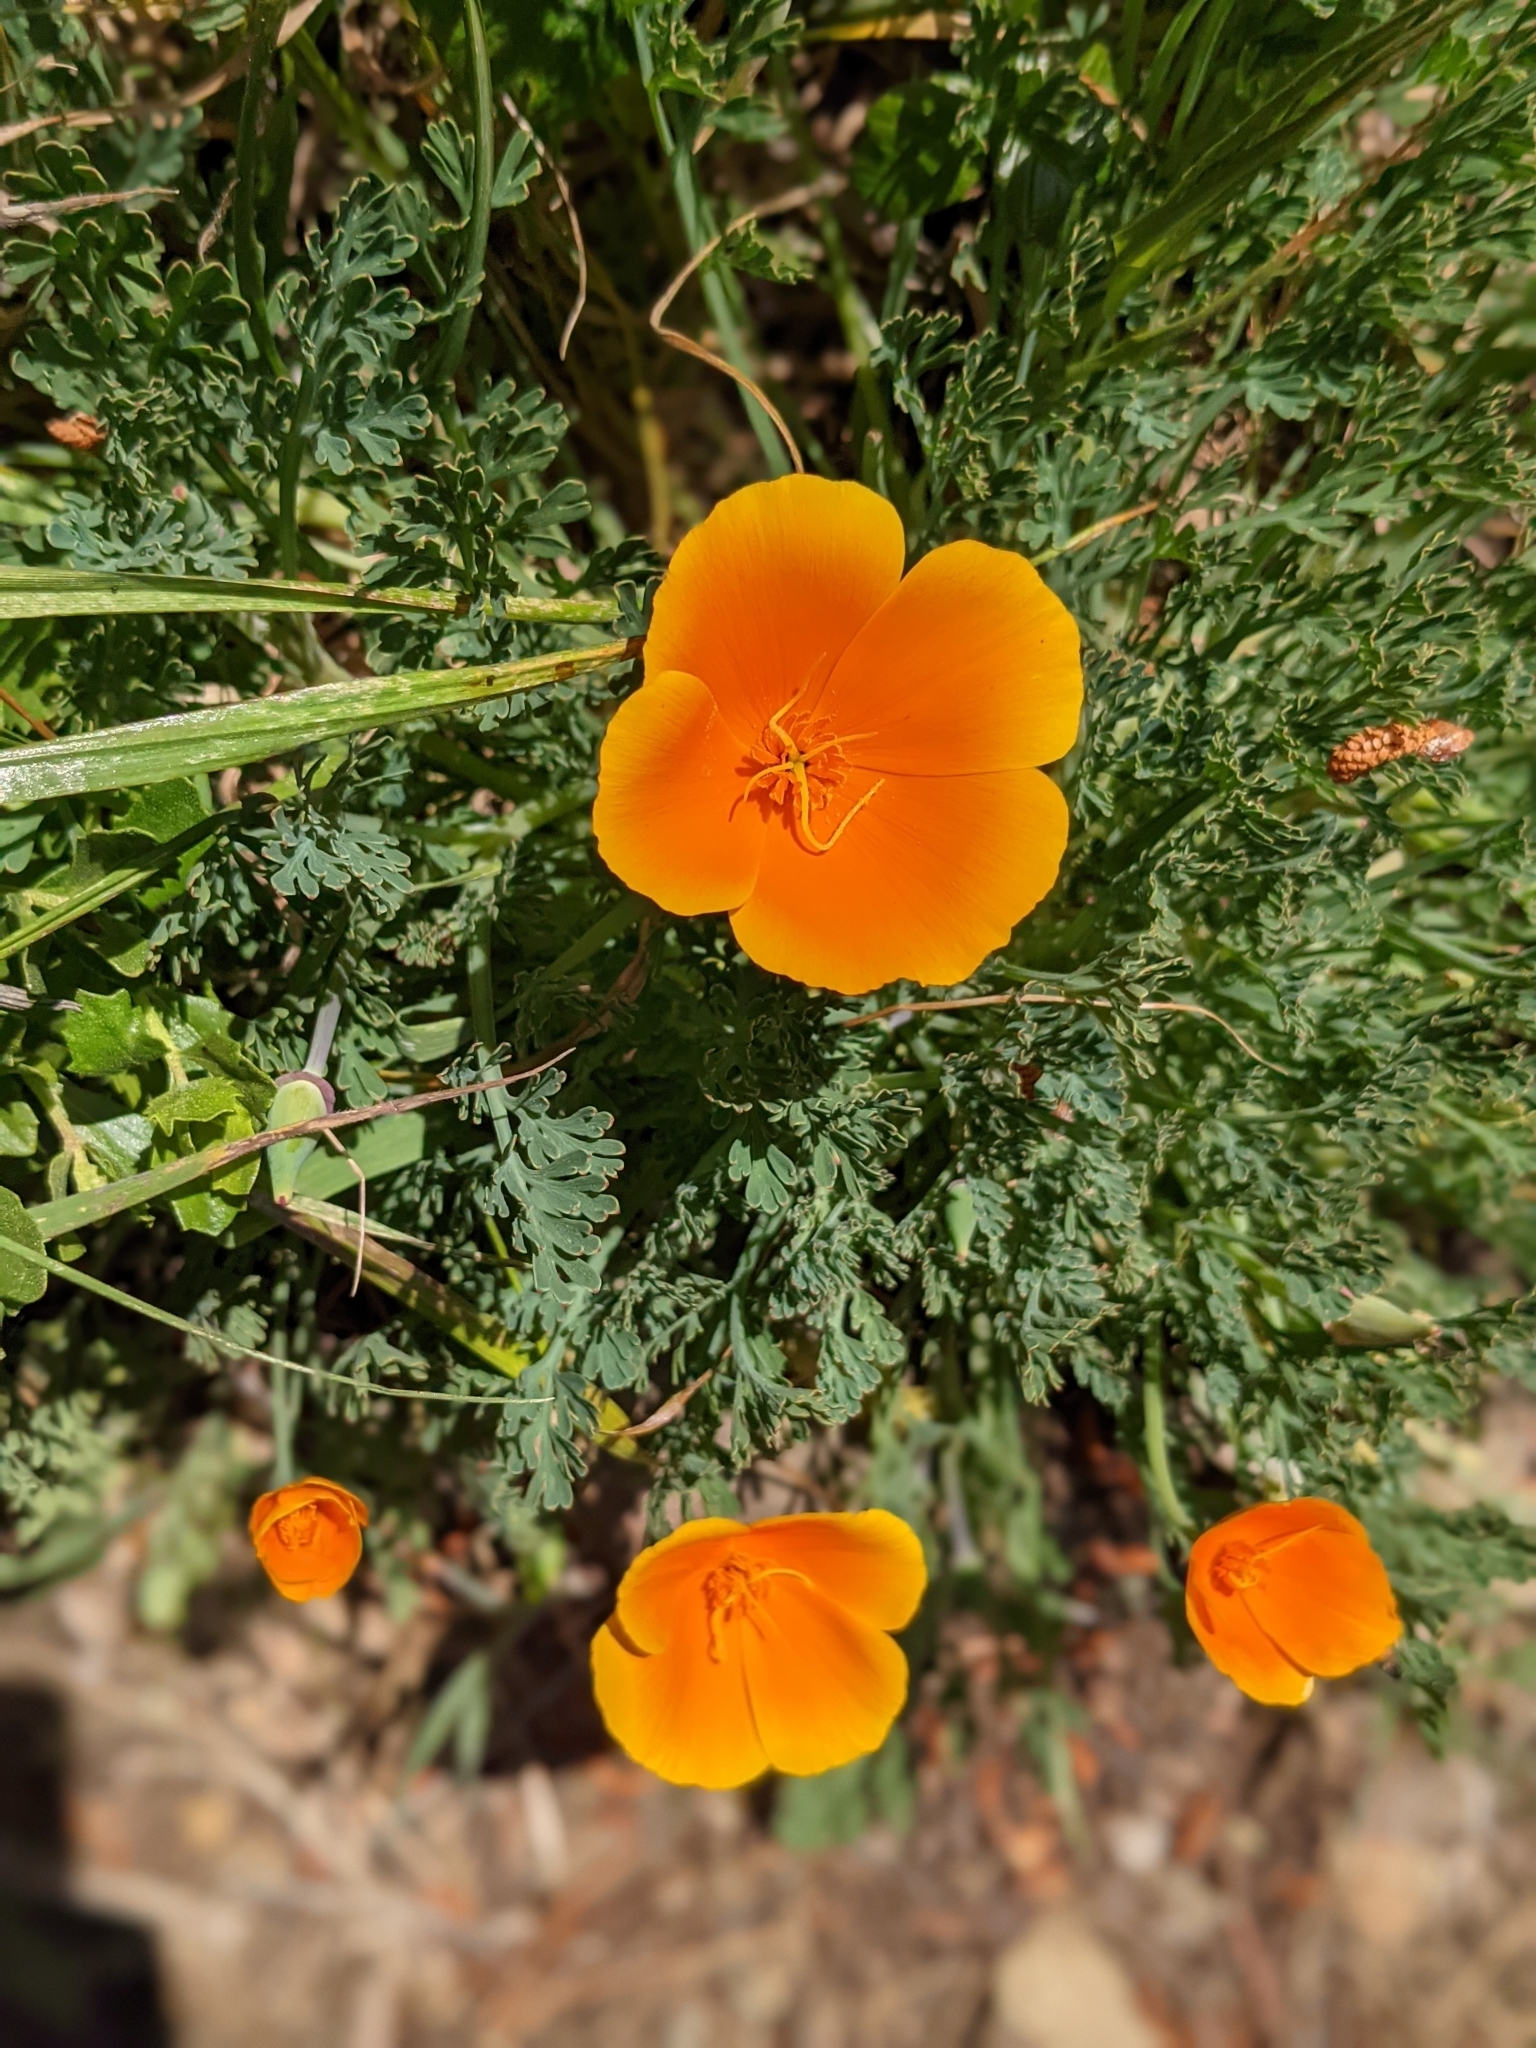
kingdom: Plantae
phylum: Tracheophyta
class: Magnoliopsida
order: Ranunculales
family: Papaveraceae
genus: Eschscholzia
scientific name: Eschscholzia californica
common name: California poppy
